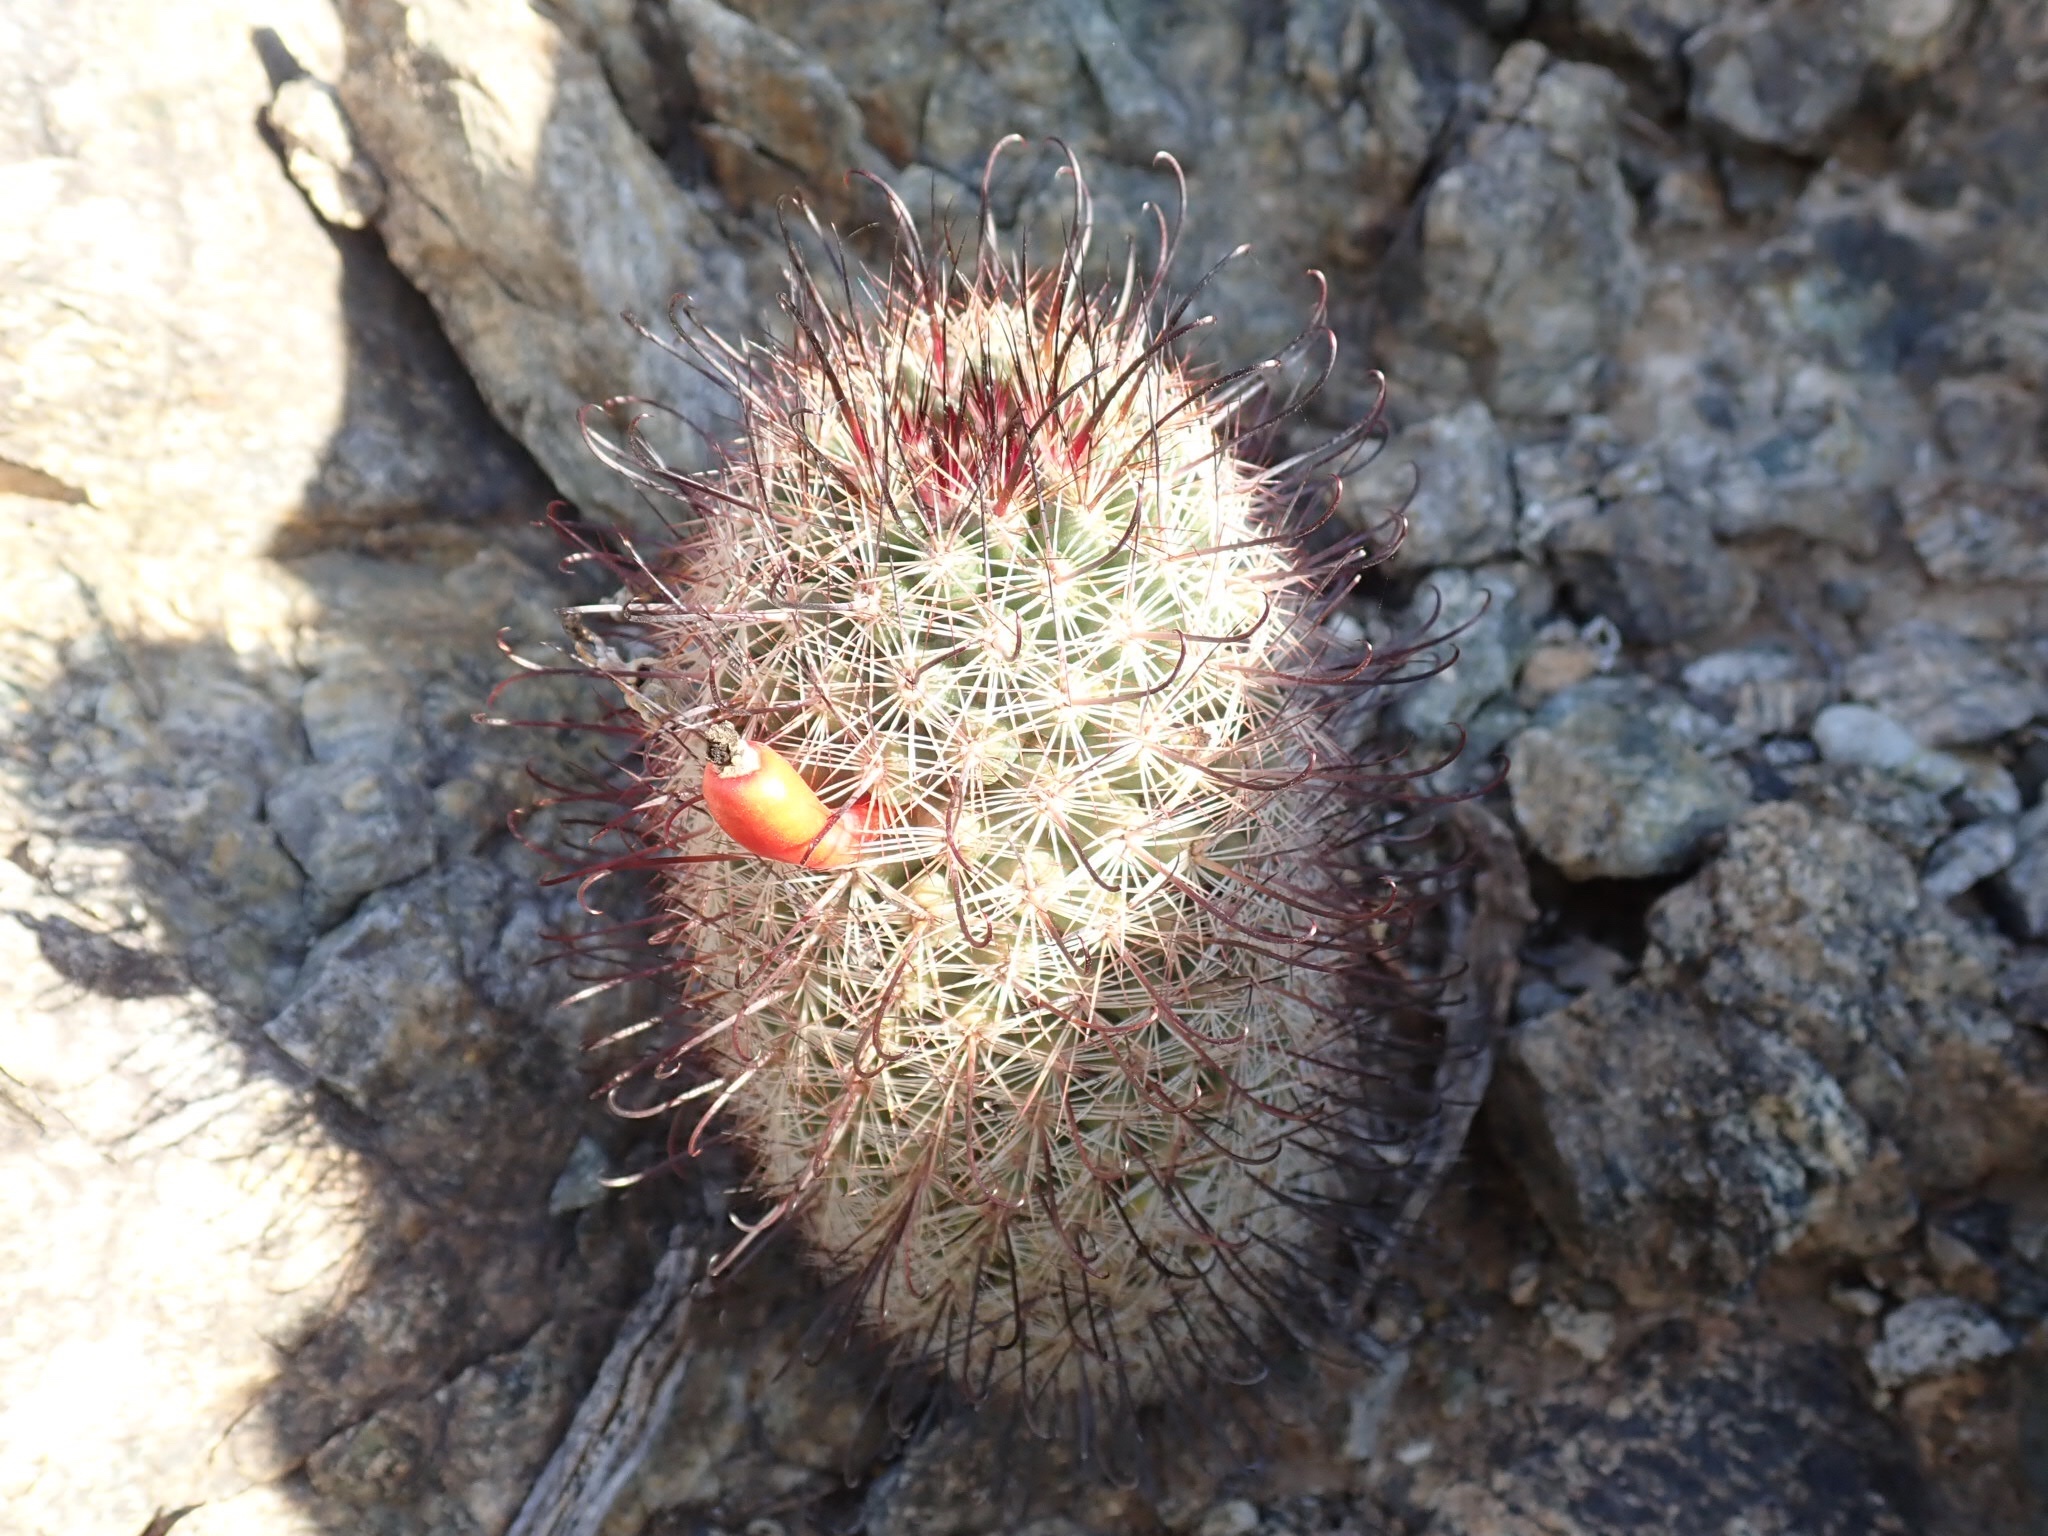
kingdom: Plantae
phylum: Tracheophyta
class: Magnoliopsida
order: Caryophyllales
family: Cactaceae
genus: Cochemiea
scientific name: Cochemiea grahamii
